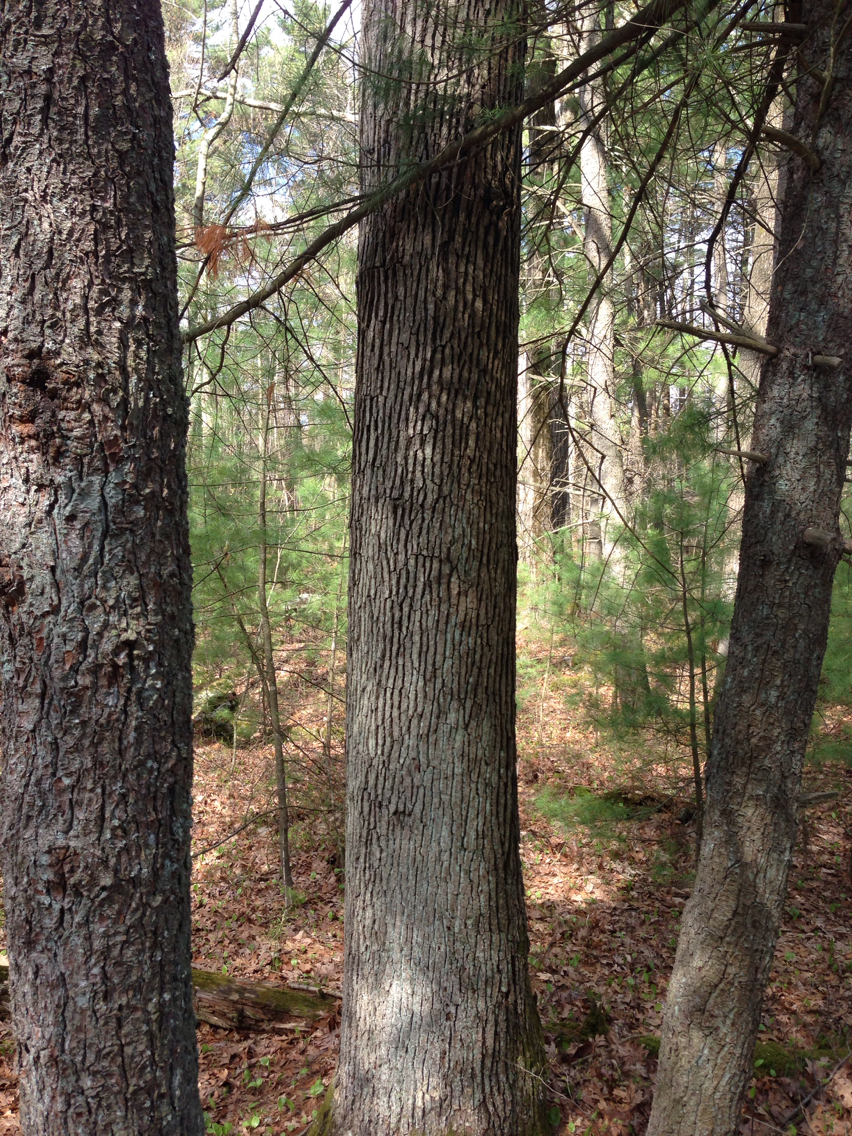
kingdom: Plantae
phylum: Tracheophyta
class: Magnoliopsida
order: Fagales
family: Fagaceae
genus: Quercus
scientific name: Quercus alba
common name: White oak
